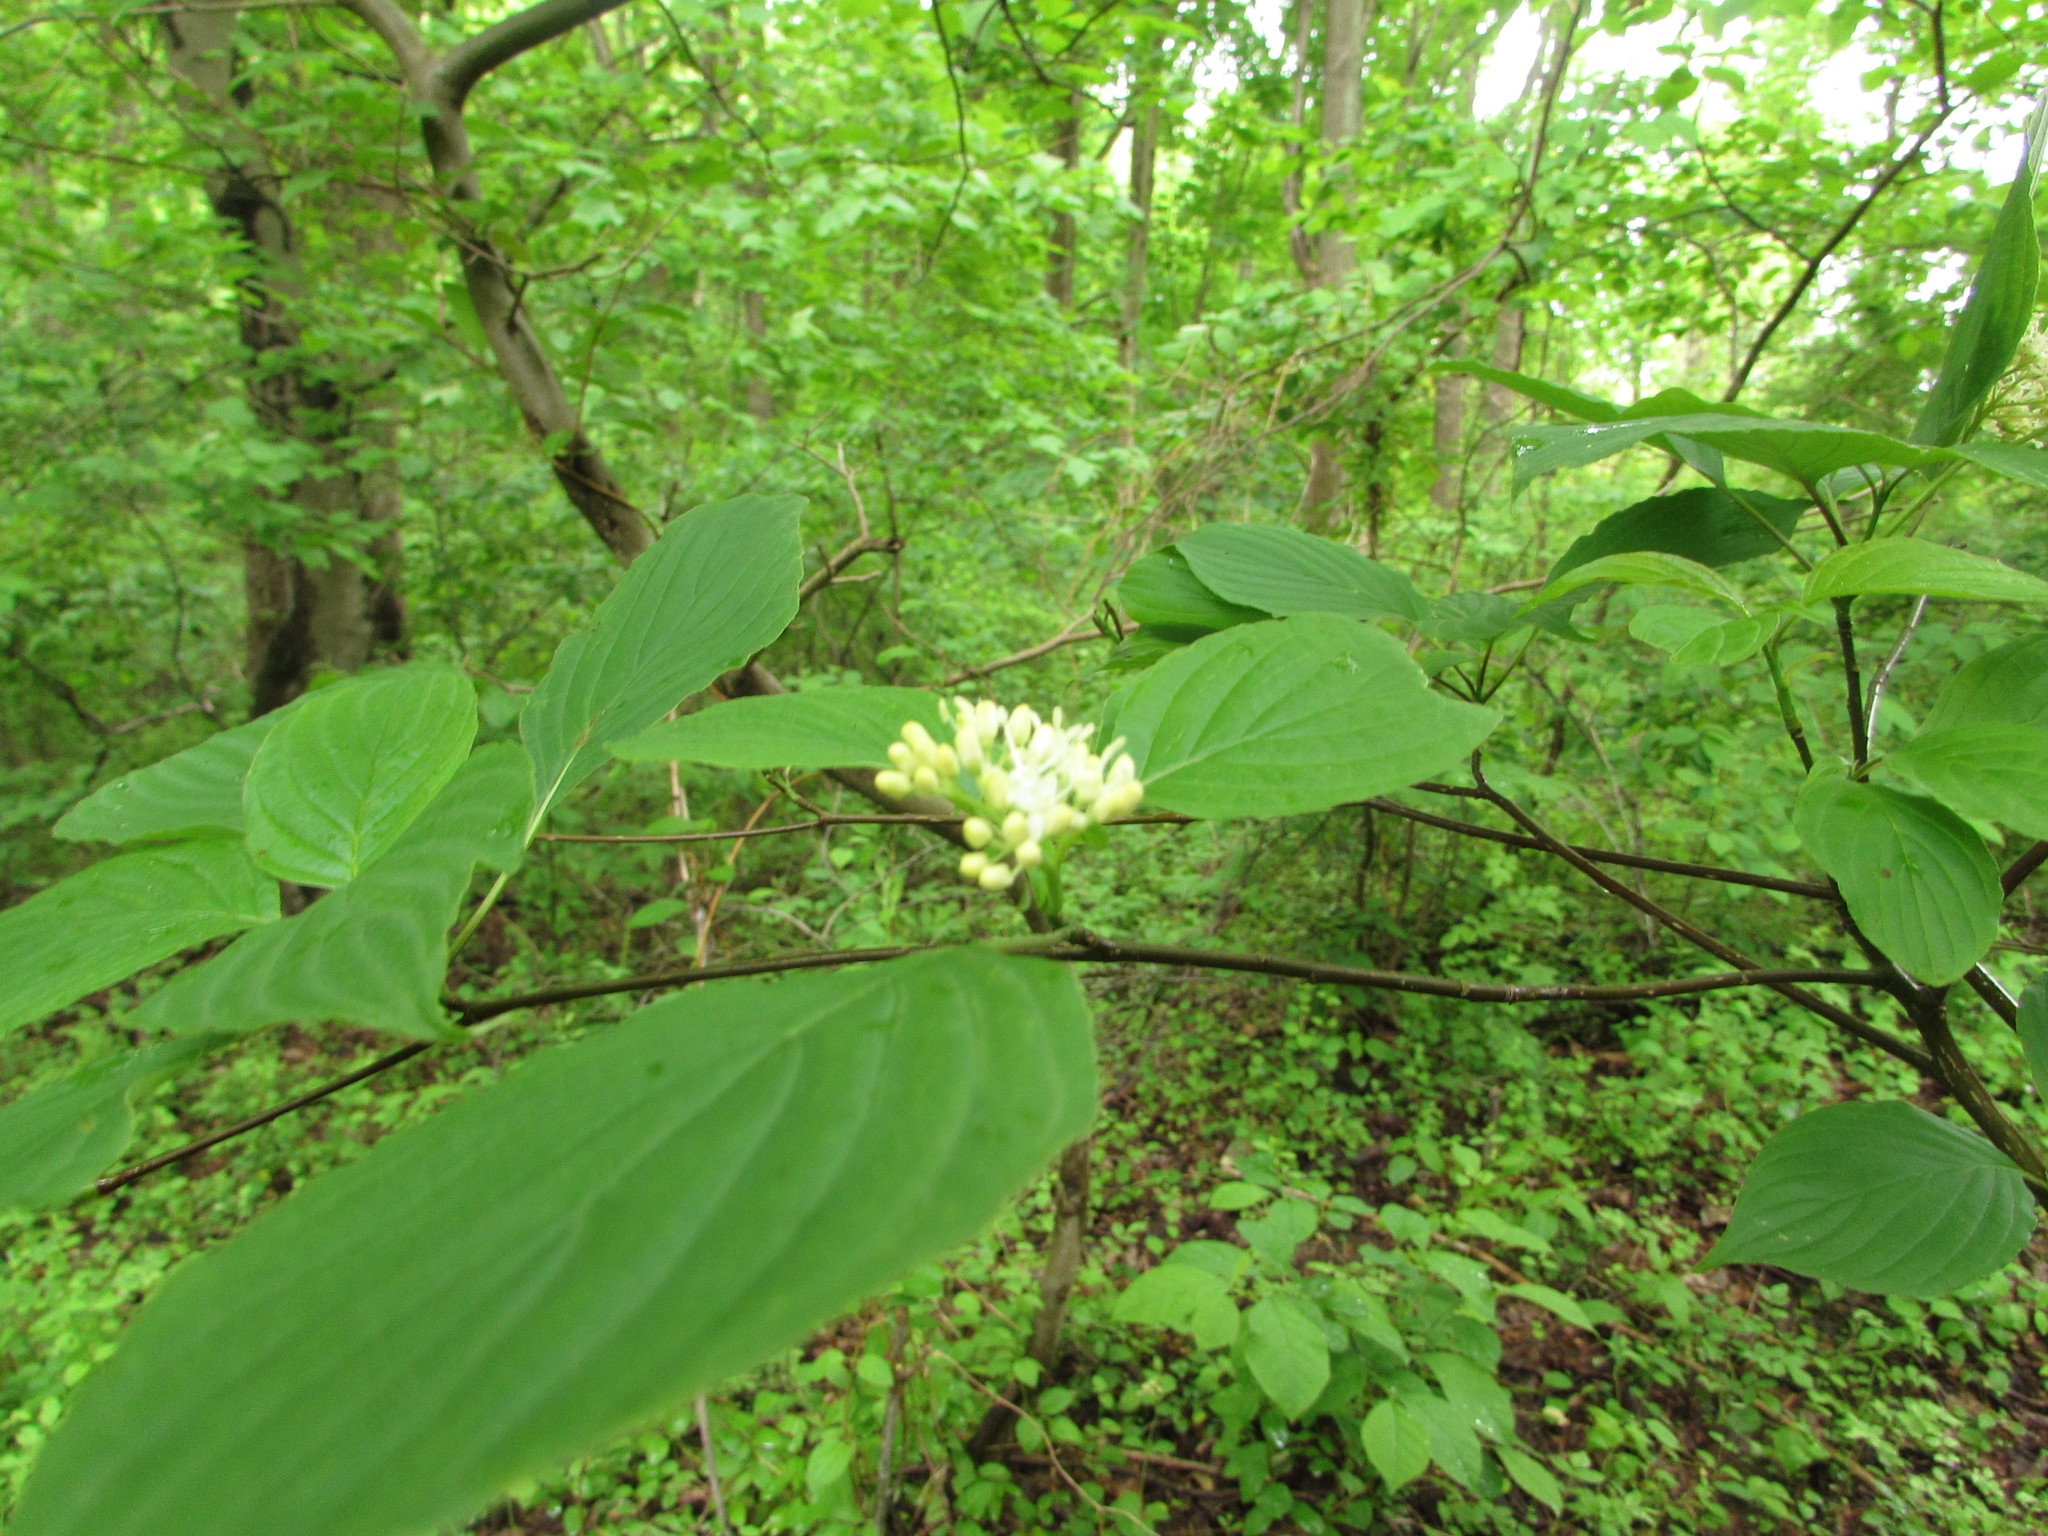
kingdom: Plantae
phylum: Tracheophyta
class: Magnoliopsida
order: Cornales
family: Cornaceae
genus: Cornus
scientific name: Cornus alternifolia
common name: Pagoda dogwood
